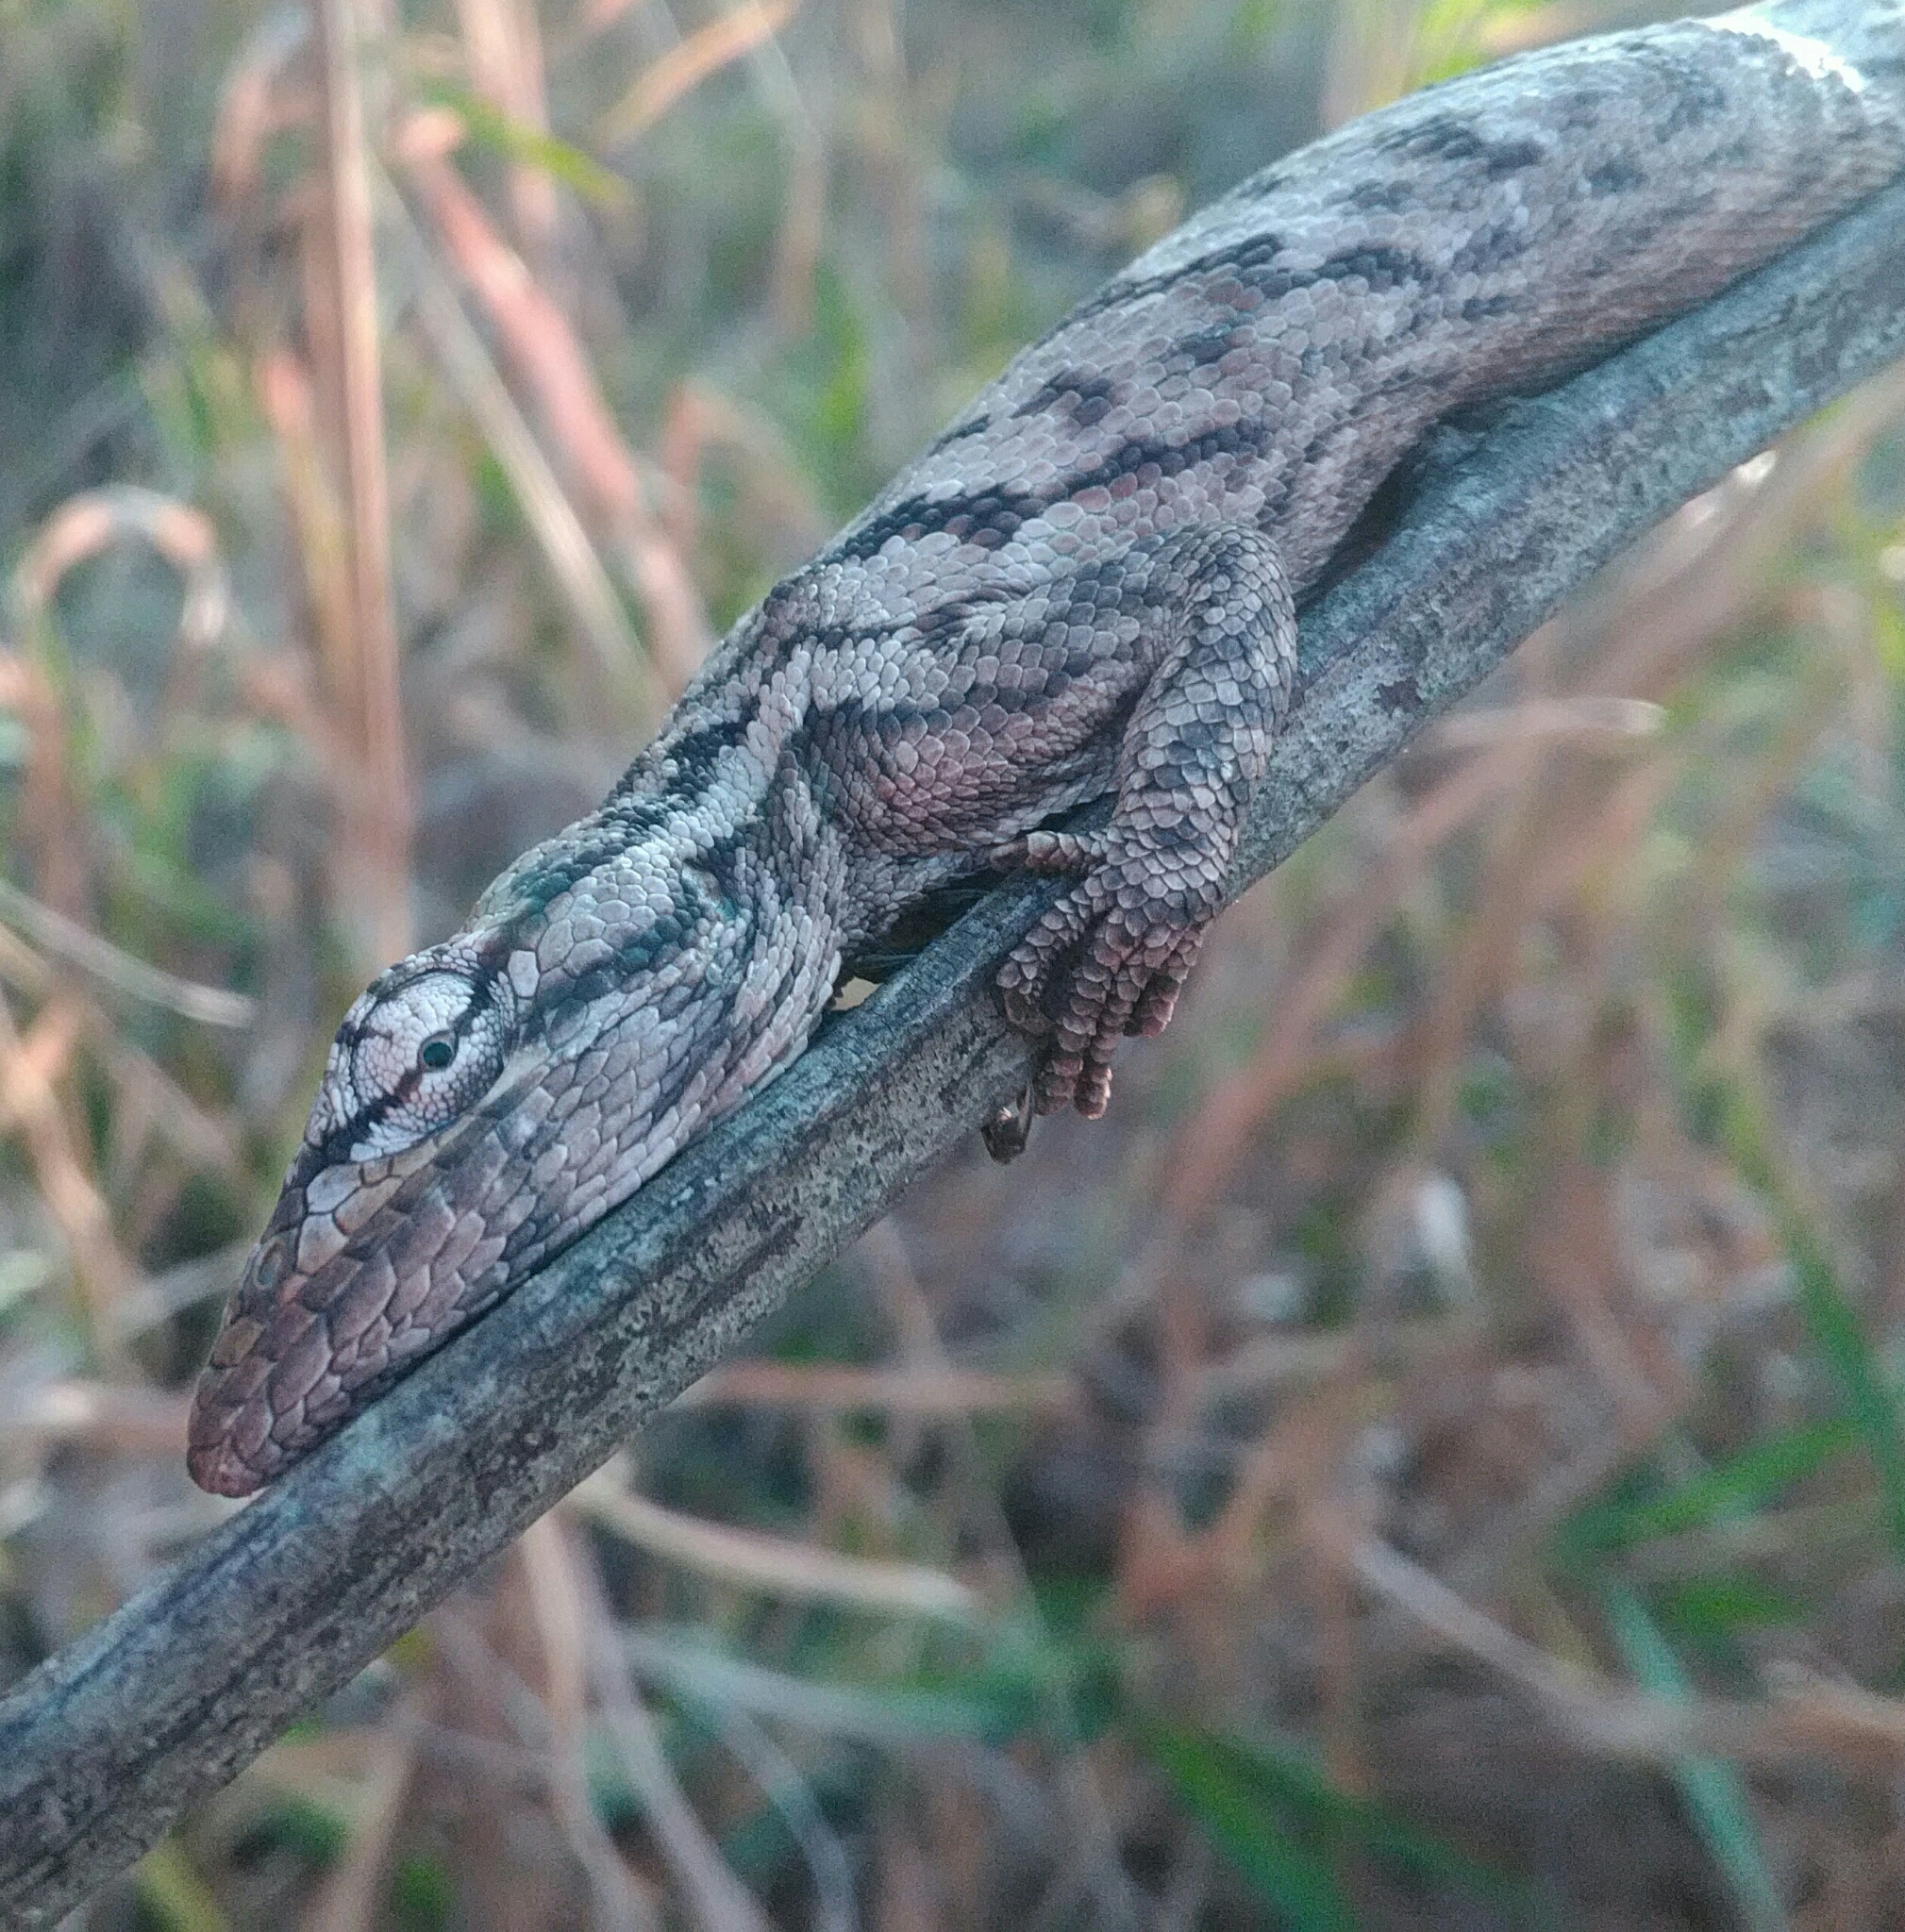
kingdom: Animalia
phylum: Chordata
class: Squamata
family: Polychrotidae
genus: Polychrus
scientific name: Polychrus acutirostris
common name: Brazilian bush anole
